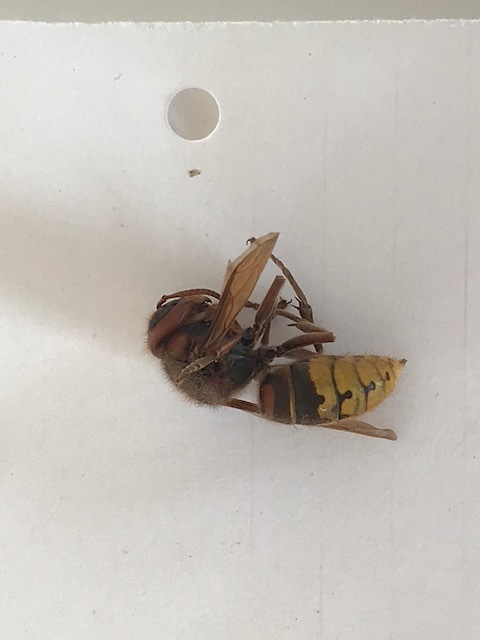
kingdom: Animalia
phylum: Arthropoda
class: Insecta
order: Hymenoptera
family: Vespidae
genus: Vespa
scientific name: Vespa crabro
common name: Hornet
